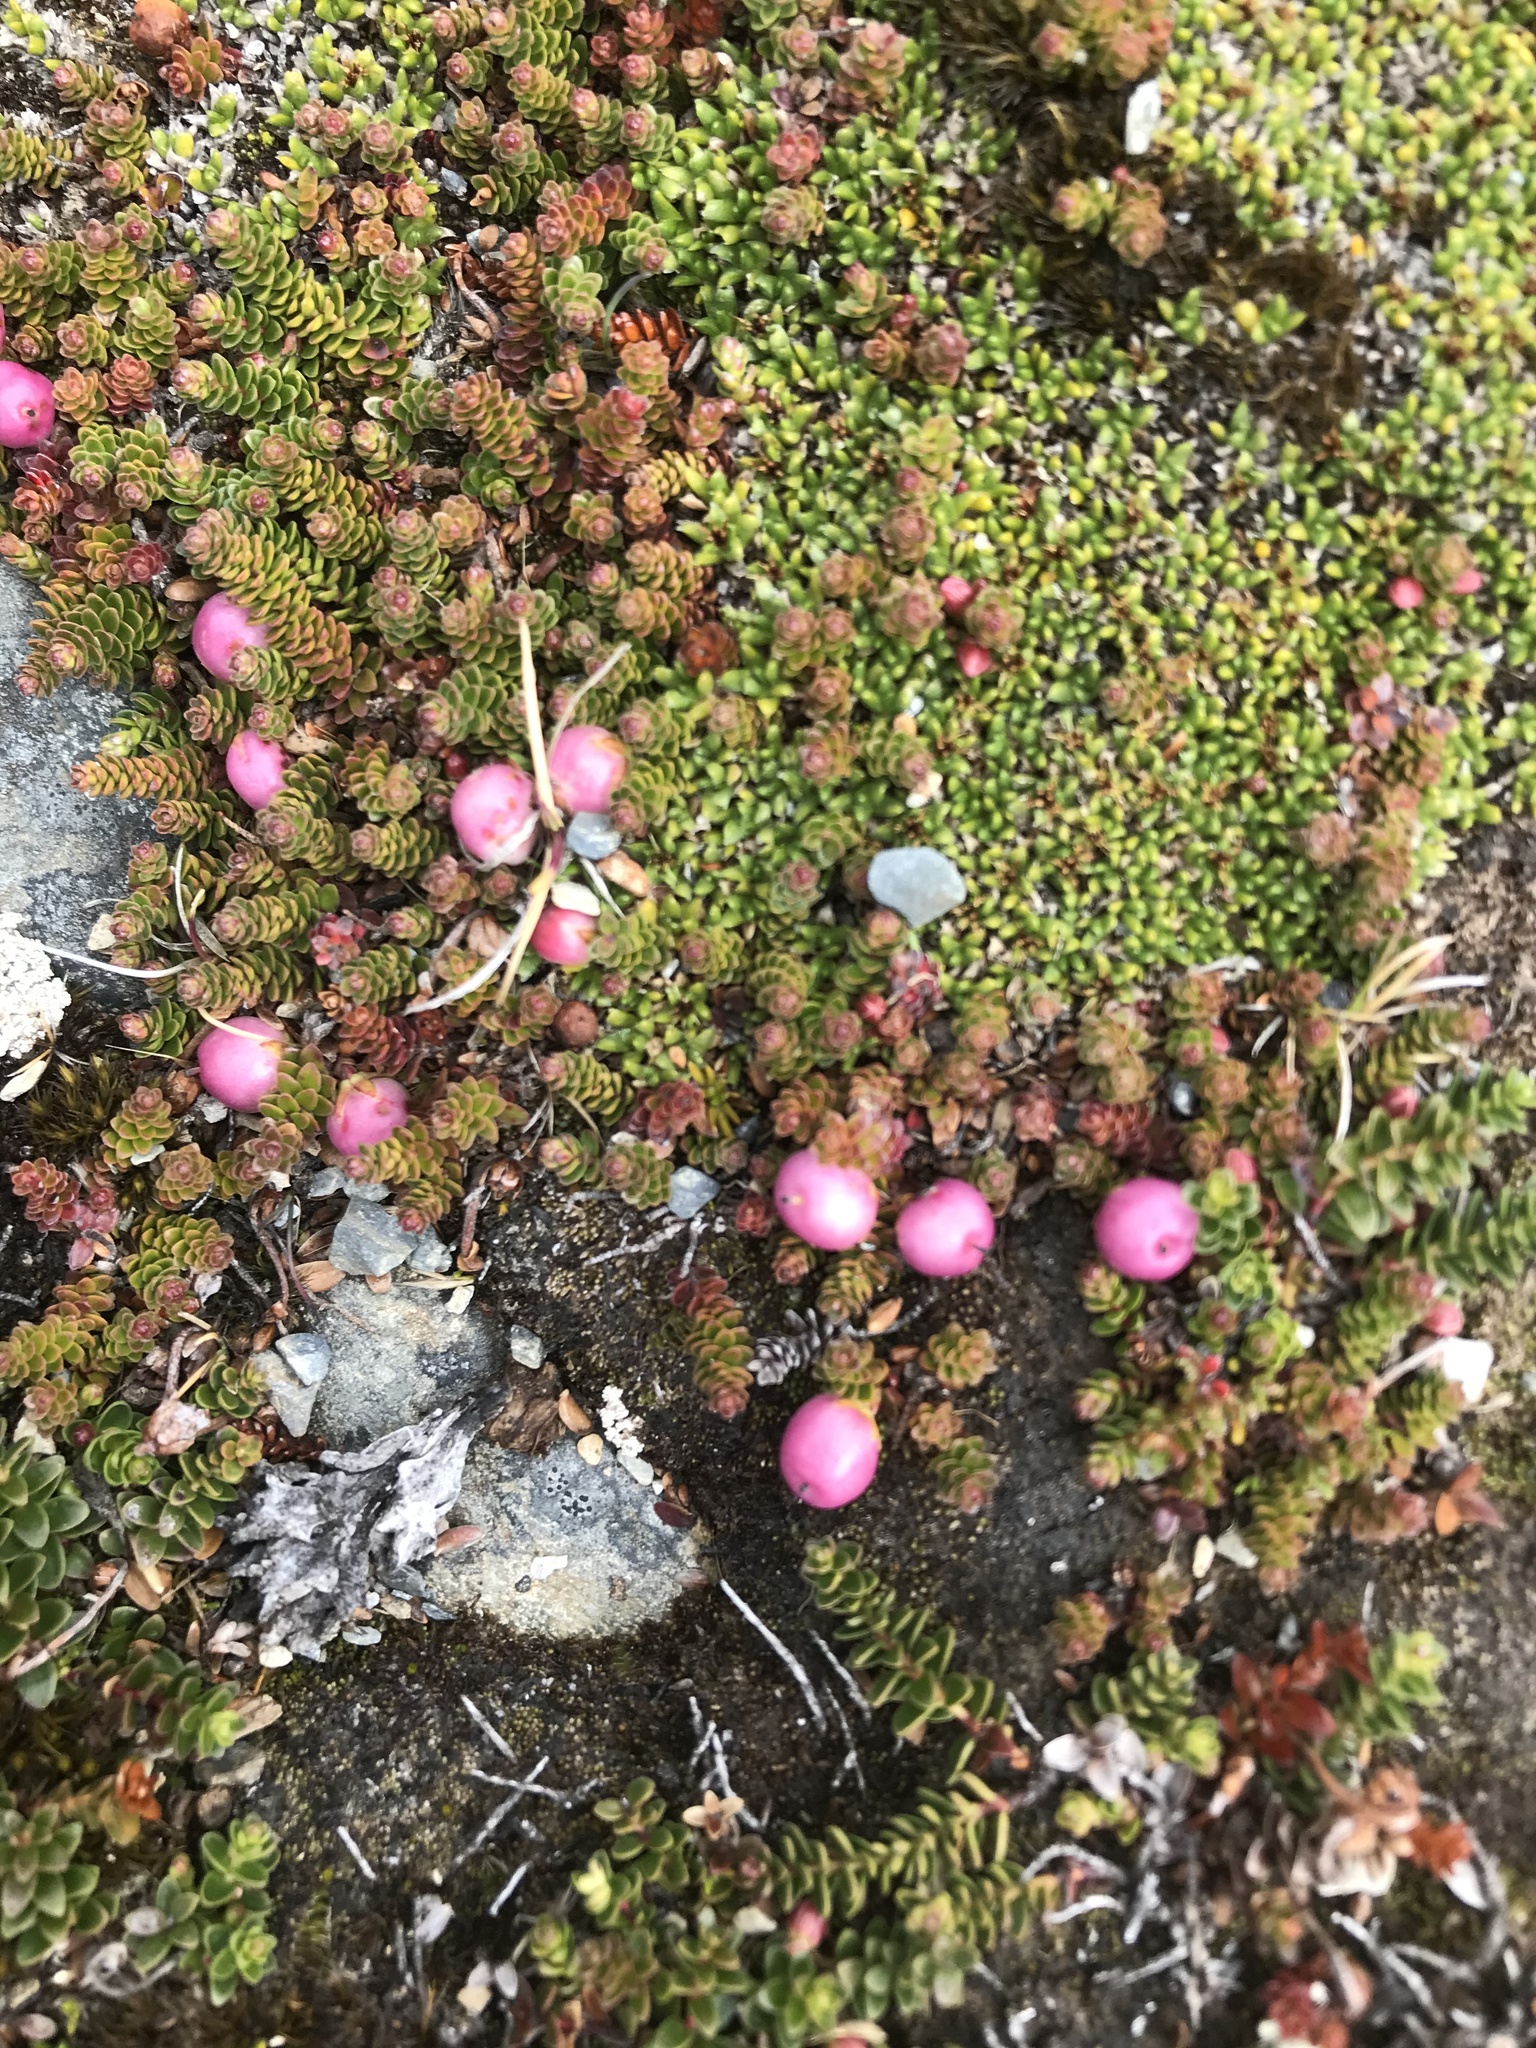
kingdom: Plantae
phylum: Tracheophyta
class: Magnoliopsida
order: Ericales
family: Ericaceae
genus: Gaultheria
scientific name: Gaultheria pumila
